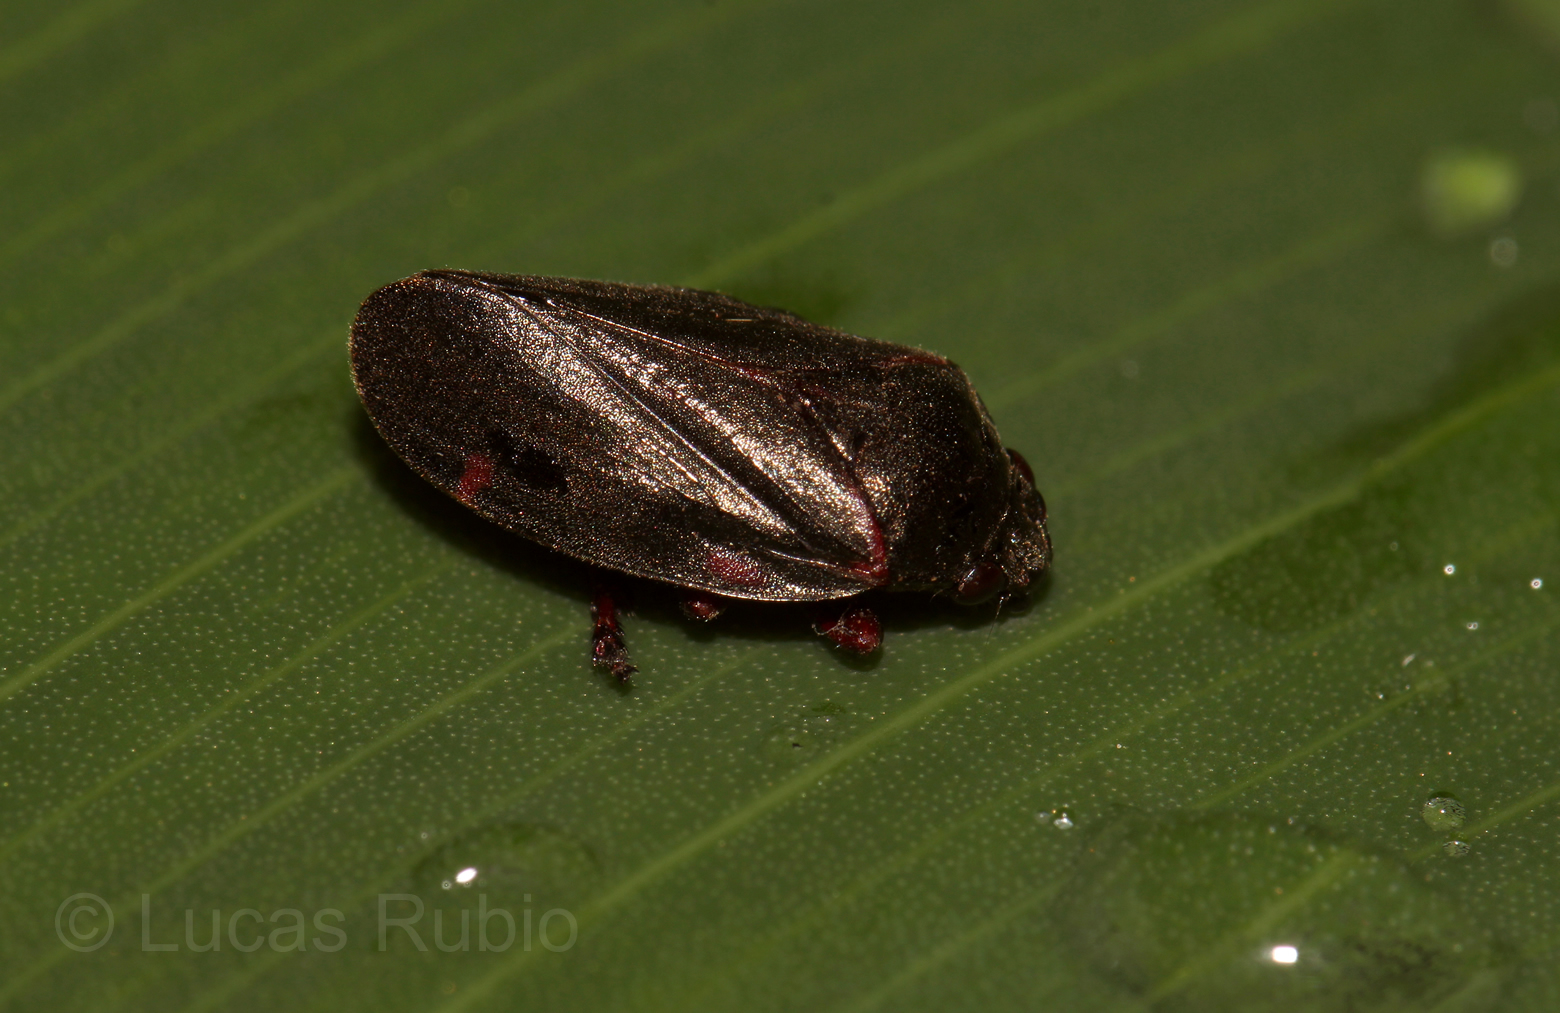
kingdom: Animalia
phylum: Arthropoda
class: Insecta
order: Hemiptera
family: Cercopidae
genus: Deois
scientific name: Deois knoblauchii
